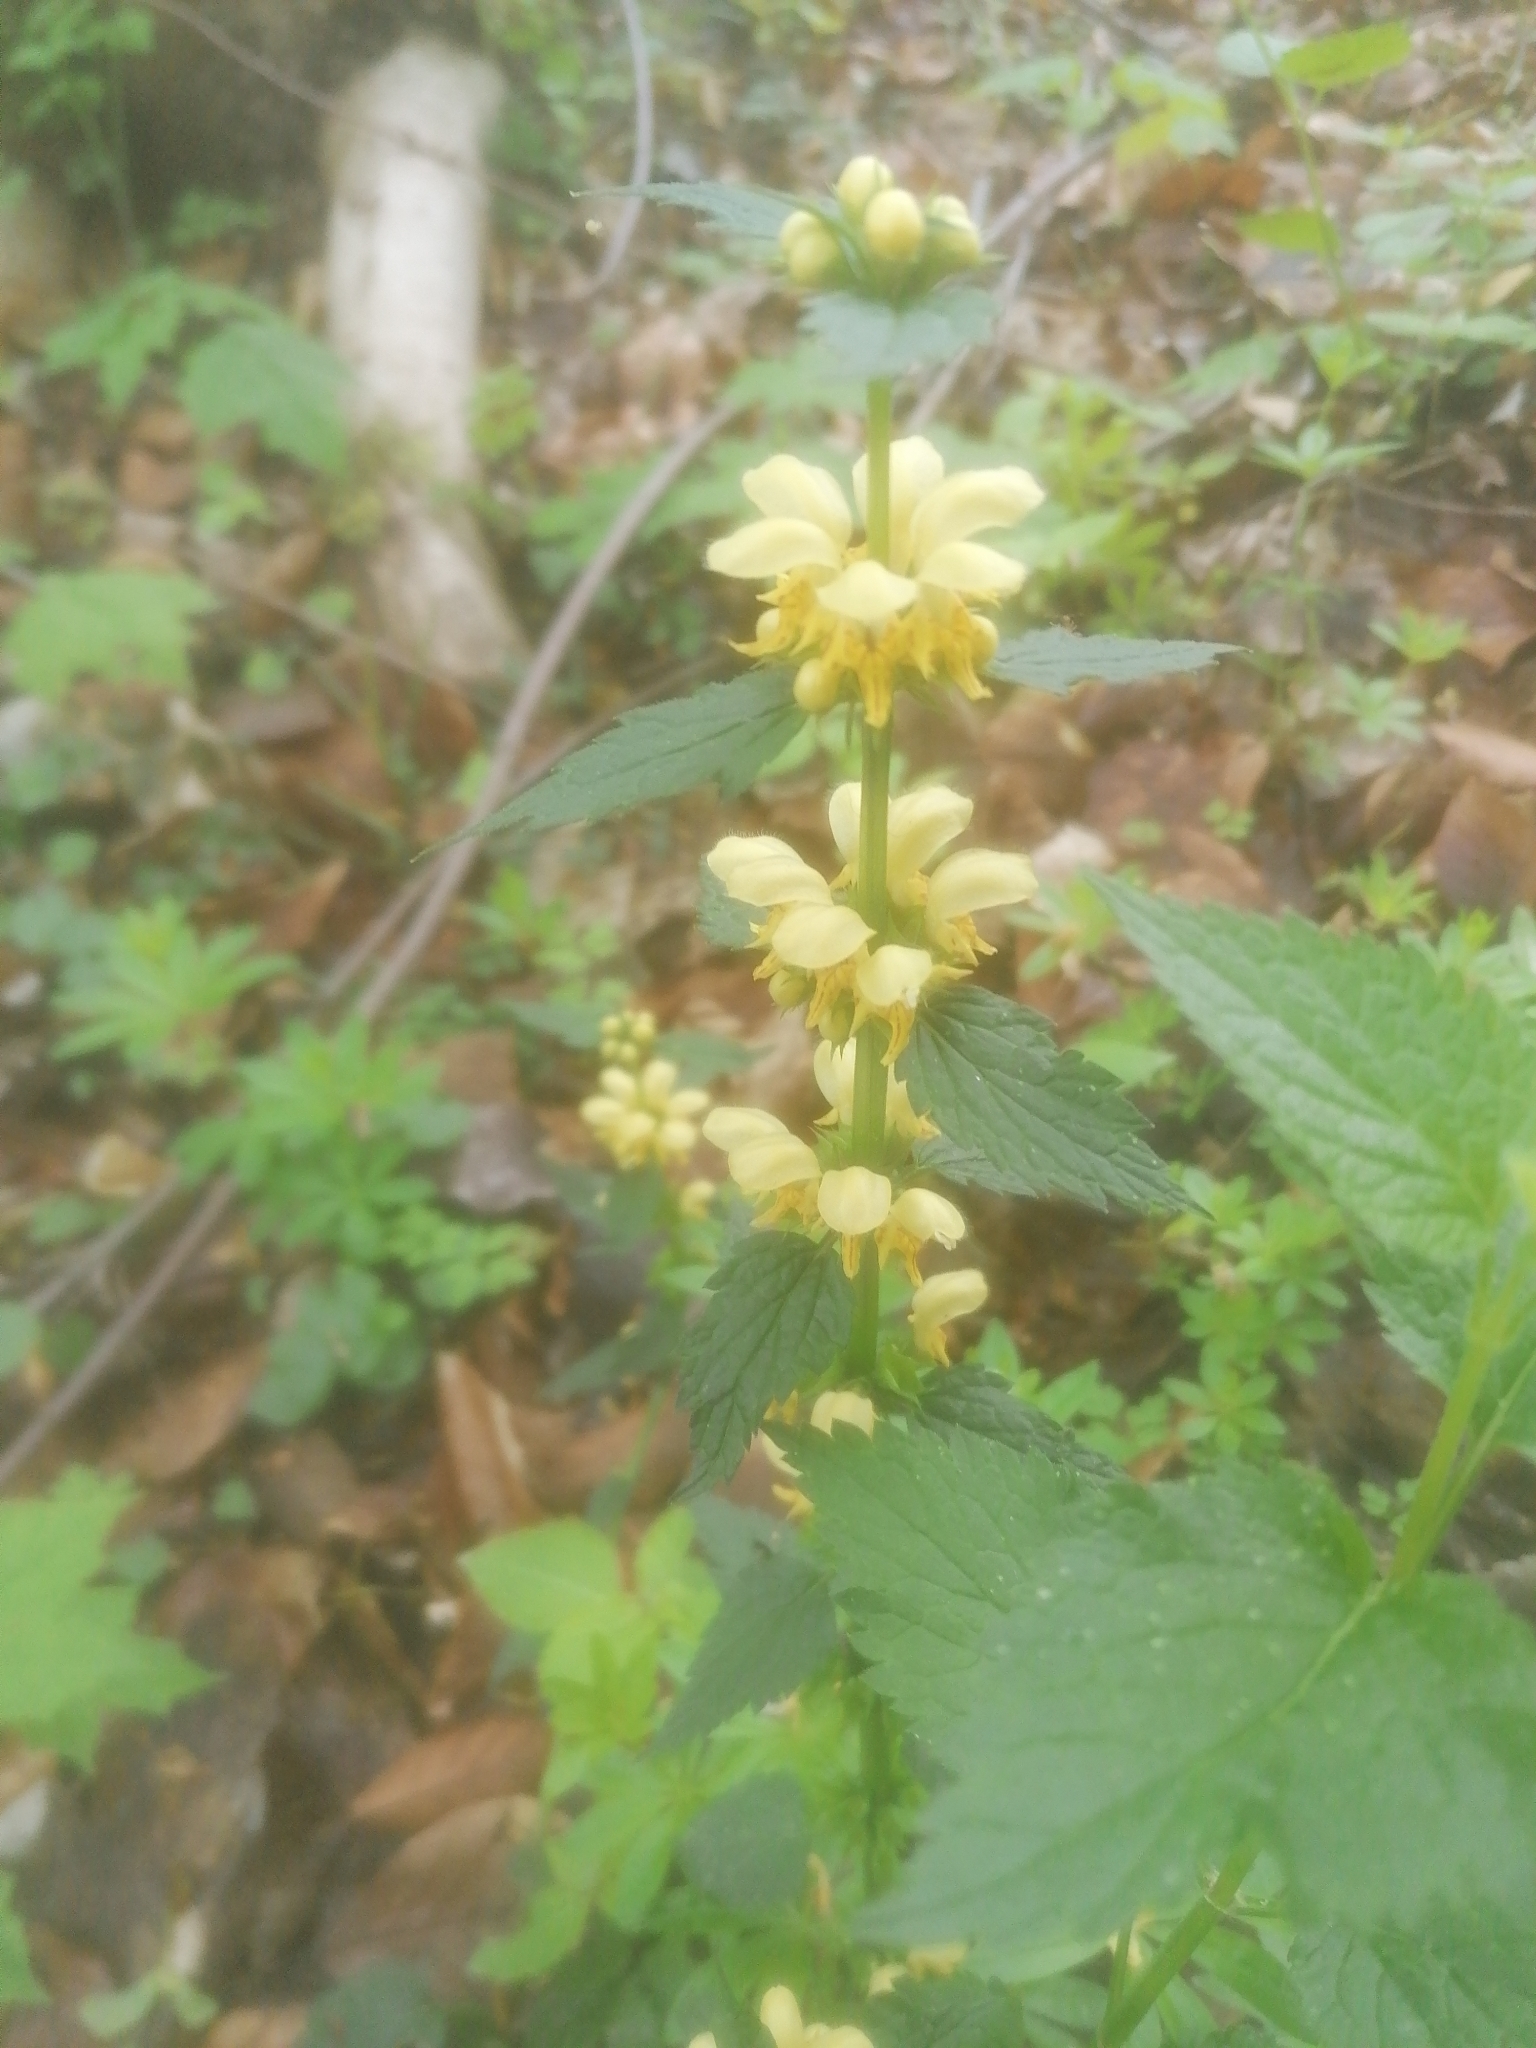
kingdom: Plantae
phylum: Tracheophyta
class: Magnoliopsida
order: Lamiales
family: Lamiaceae
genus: Lamium
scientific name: Lamium galeobdolon
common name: Yellow archangel
